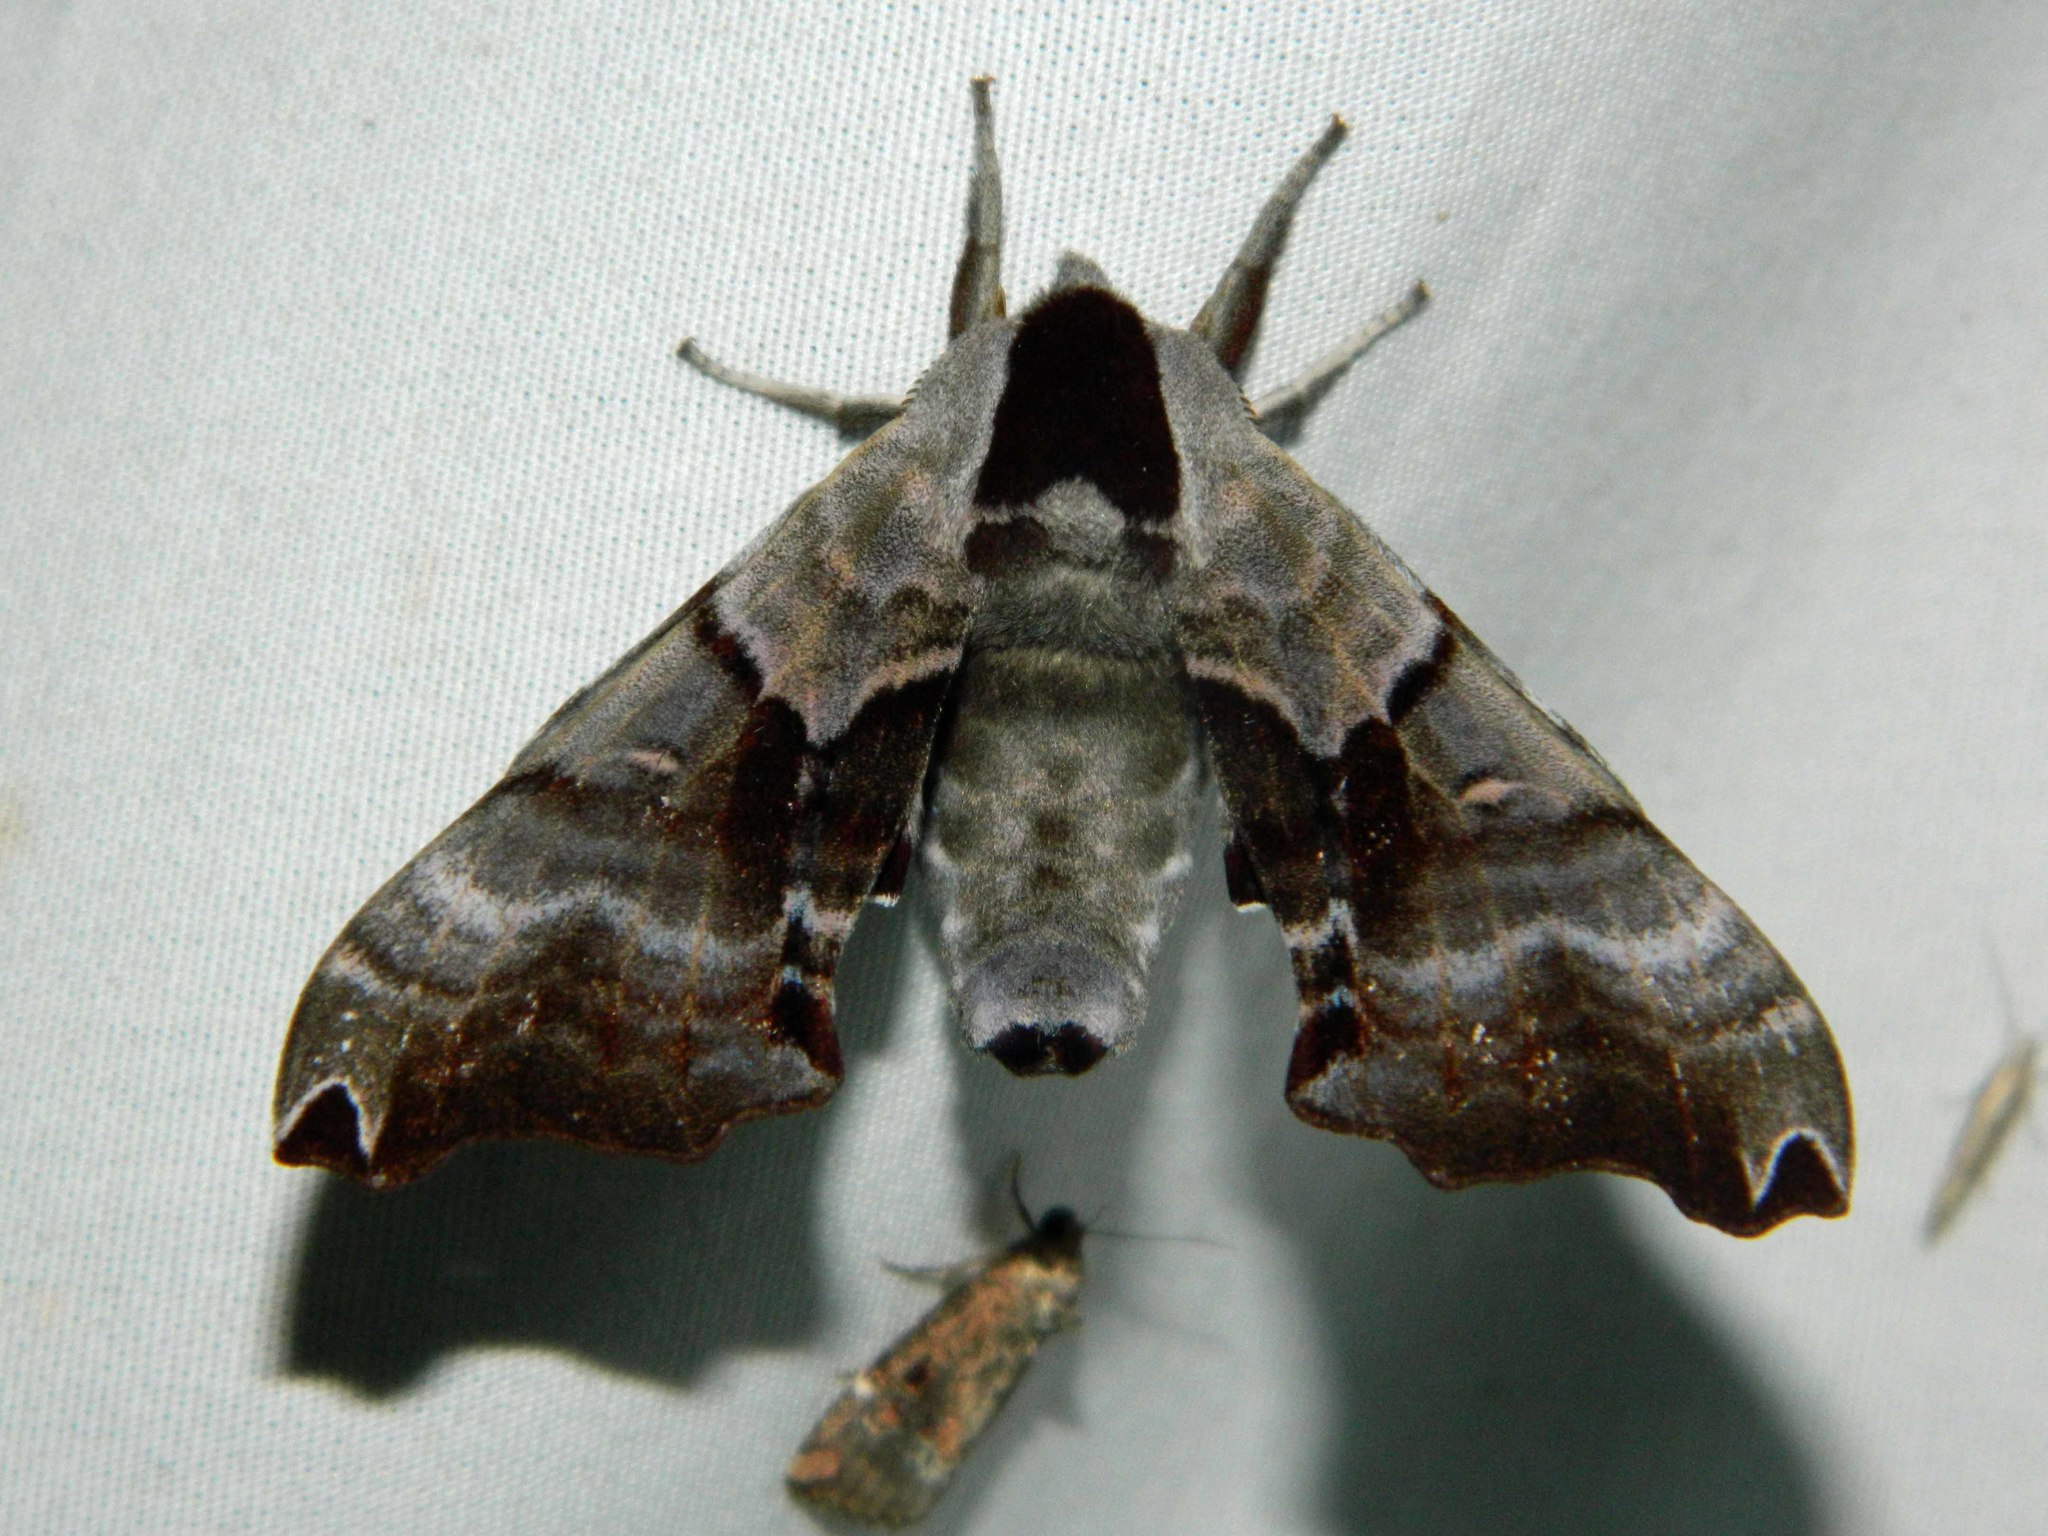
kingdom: Animalia
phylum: Arthropoda
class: Insecta
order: Lepidoptera
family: Sphingidae
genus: Smerinthus
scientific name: Smerinthus jamaicensis
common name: Twin spotted sphinx
